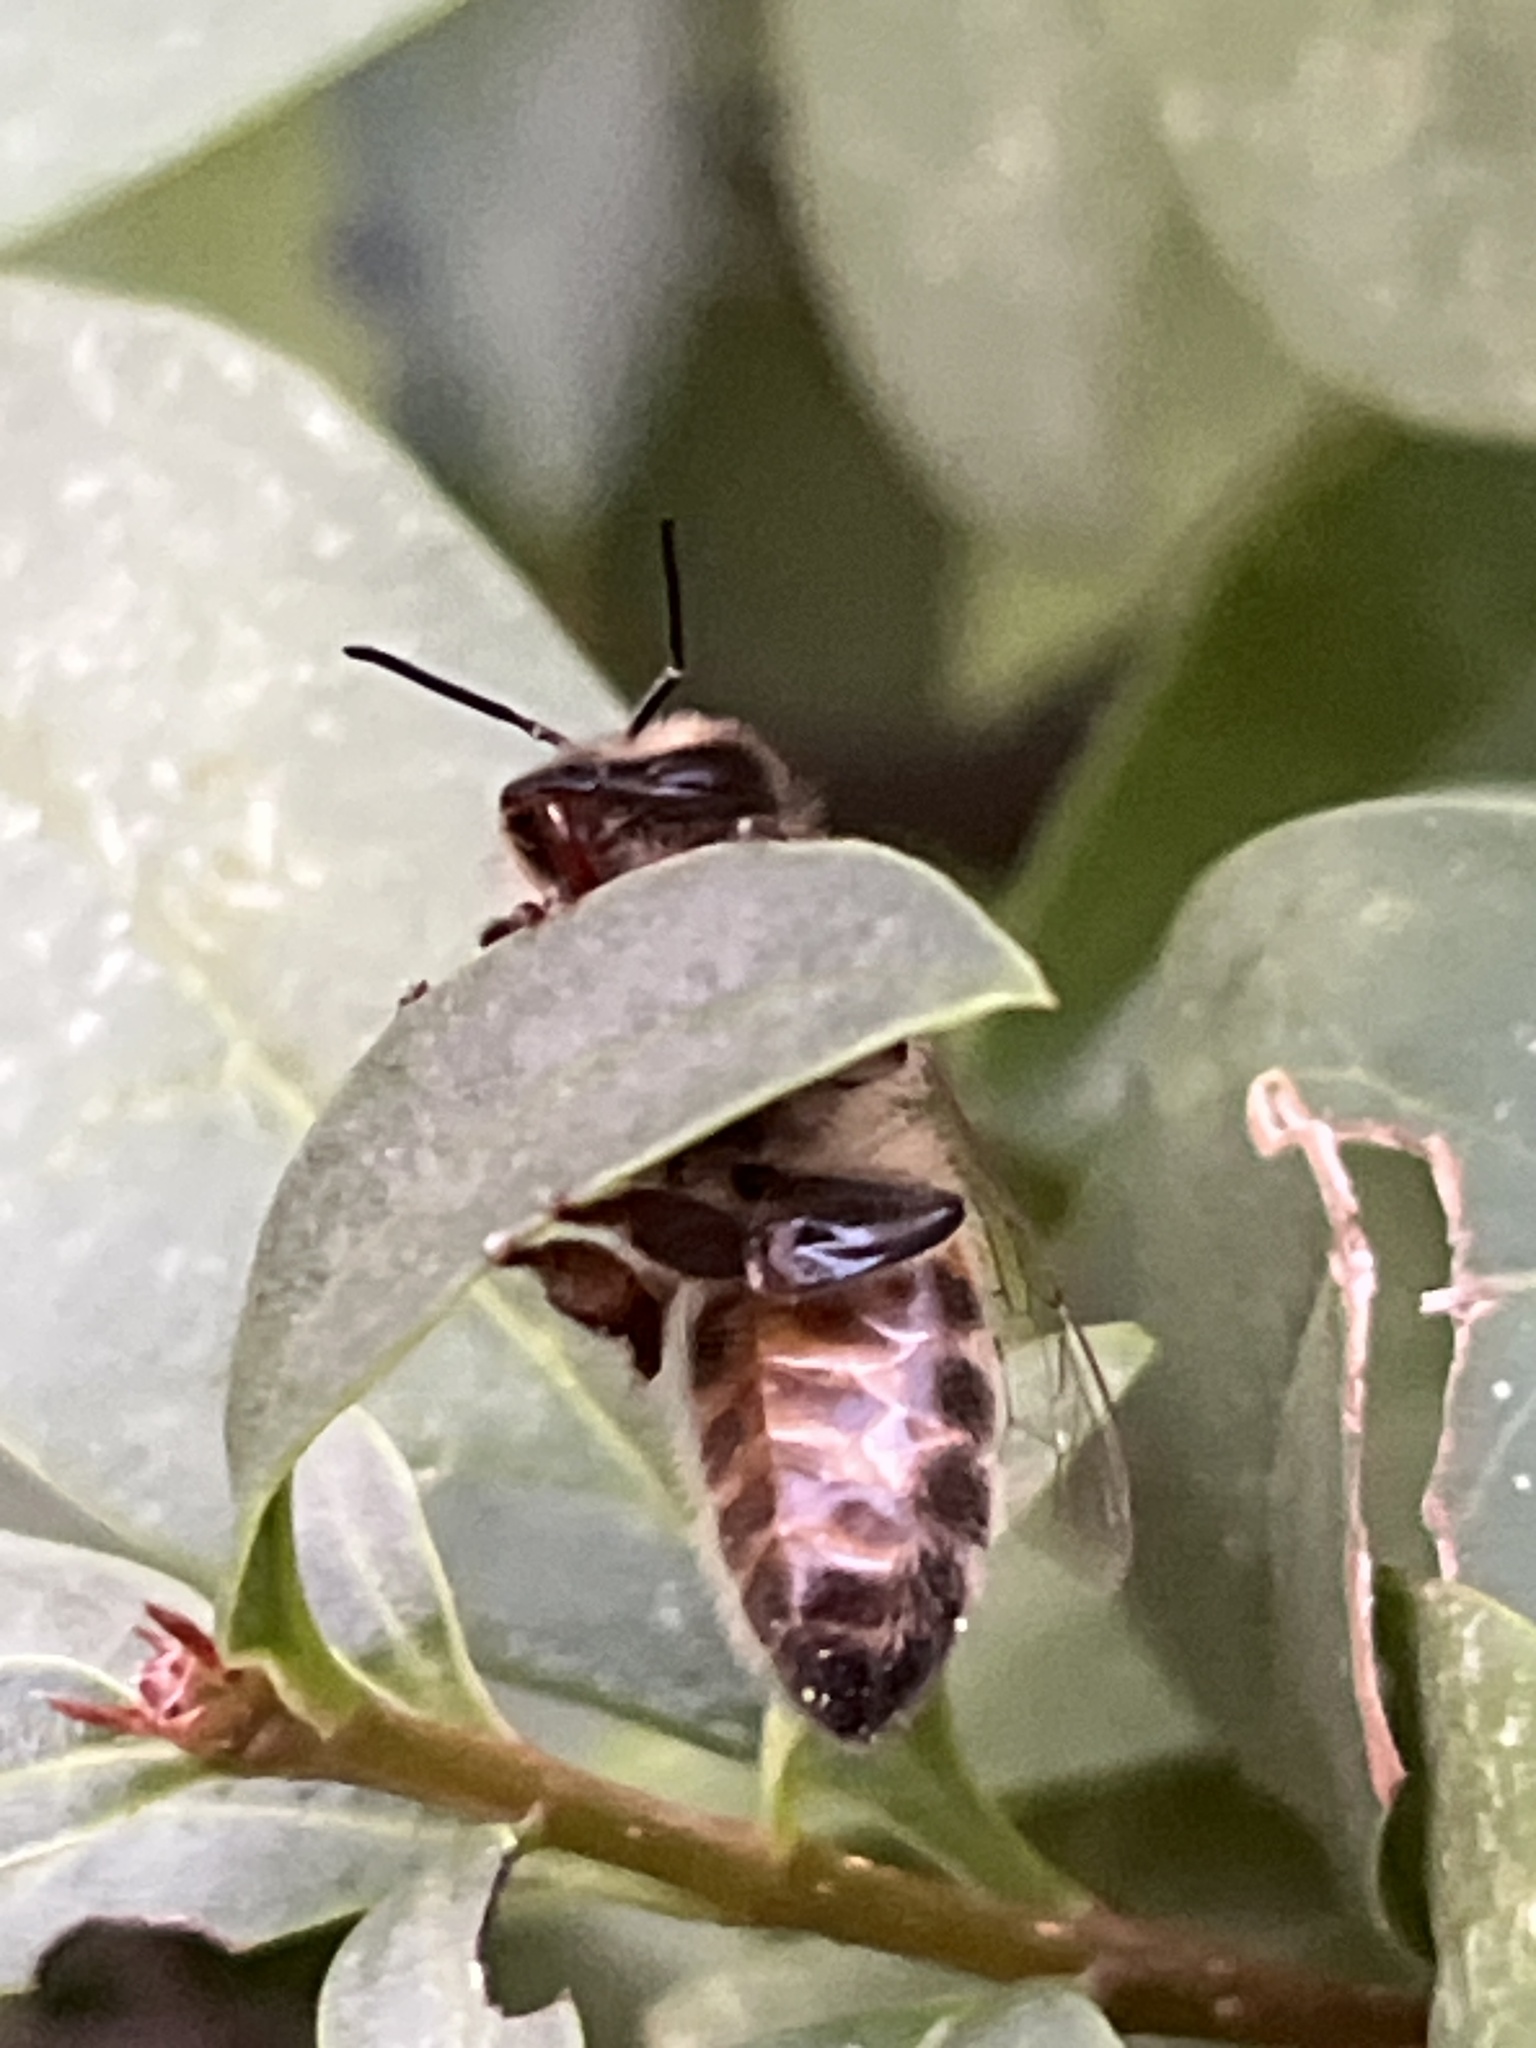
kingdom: Animalia
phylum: Arthropoda
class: Insecta
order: Hymenoptera
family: Apidae
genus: Apis
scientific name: Apis mellifera
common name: Honey bee
